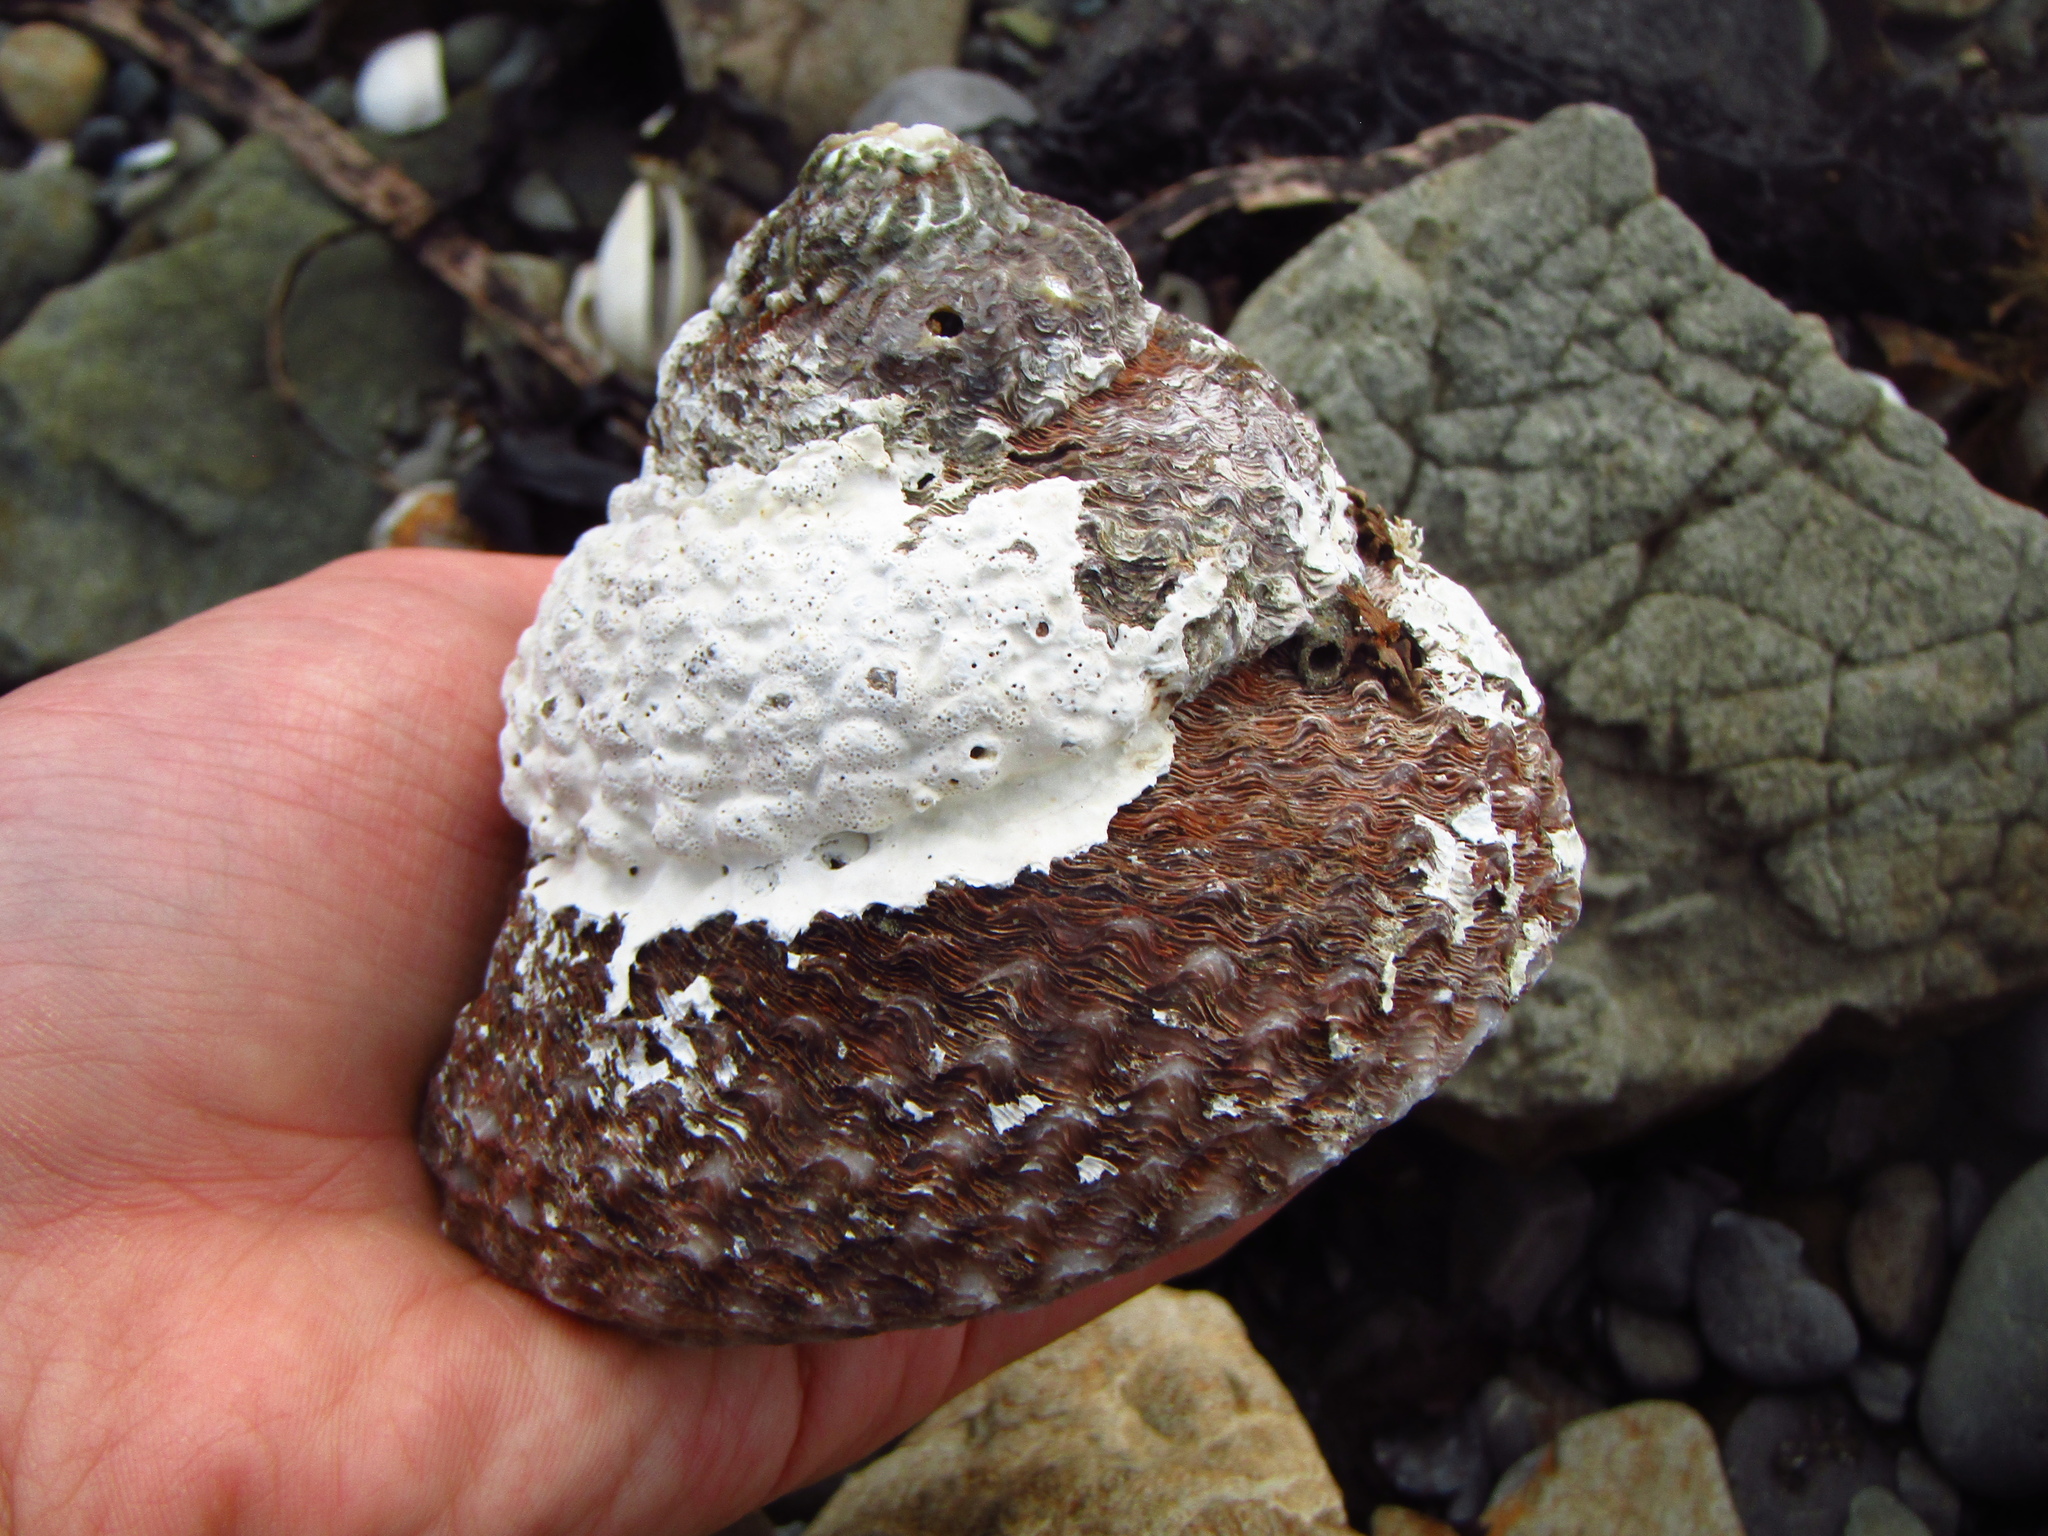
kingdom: Animalia
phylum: Mollusca
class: Gastropoda
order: Trochida
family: Turbinidae
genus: Cookia
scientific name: Cookia sulcata
